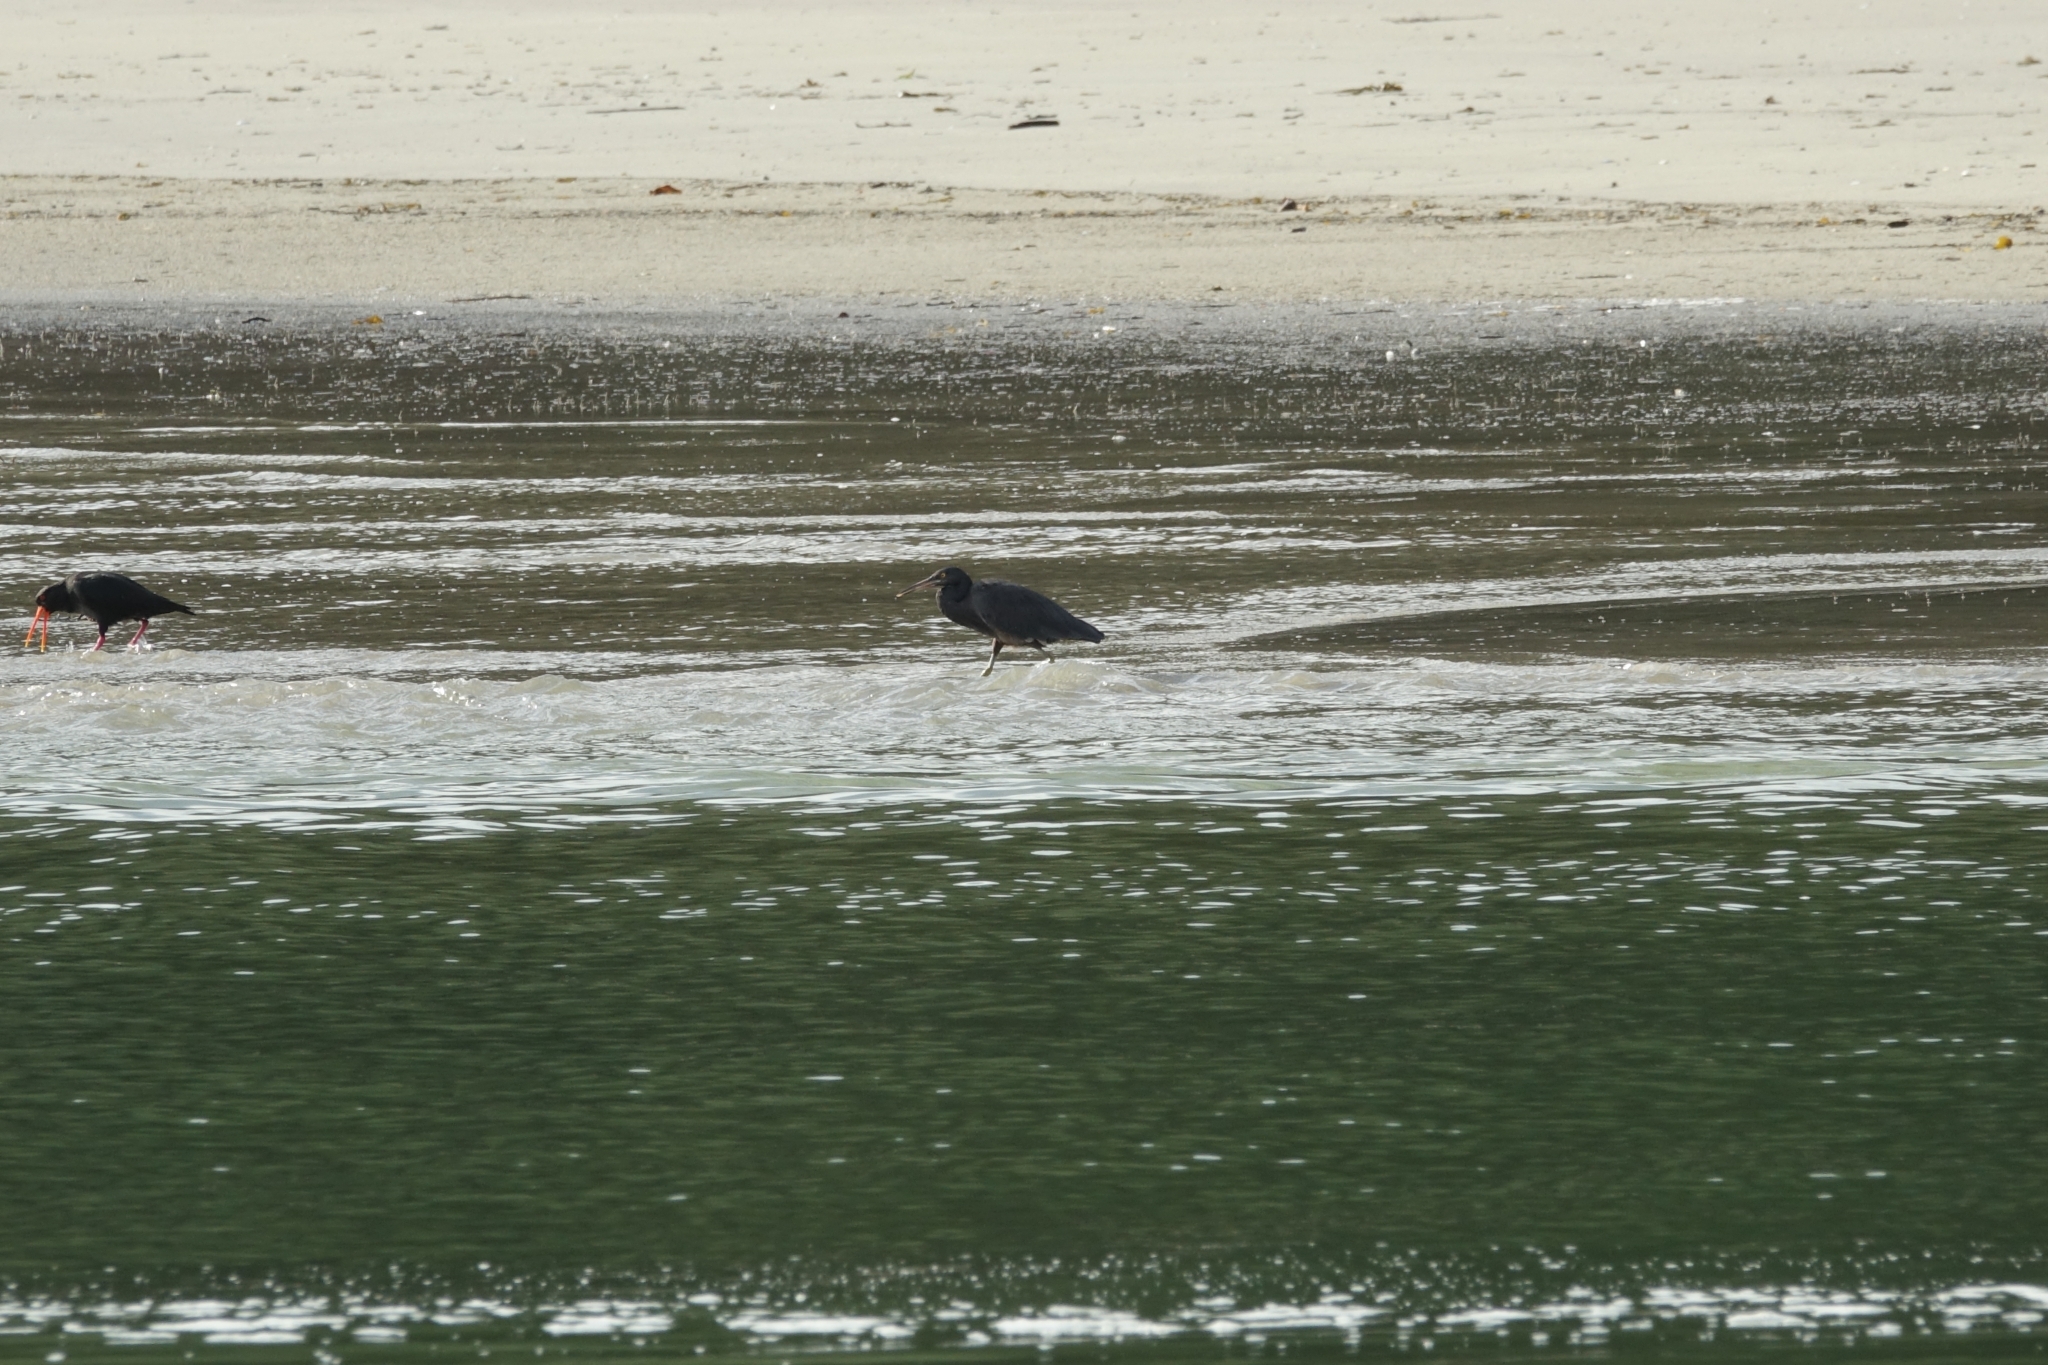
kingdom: Animalia
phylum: Chordata
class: Aves
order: Pelecaniformes
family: Ardeidae
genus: Egretta
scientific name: Egretta sacra
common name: Pacific reef heron
